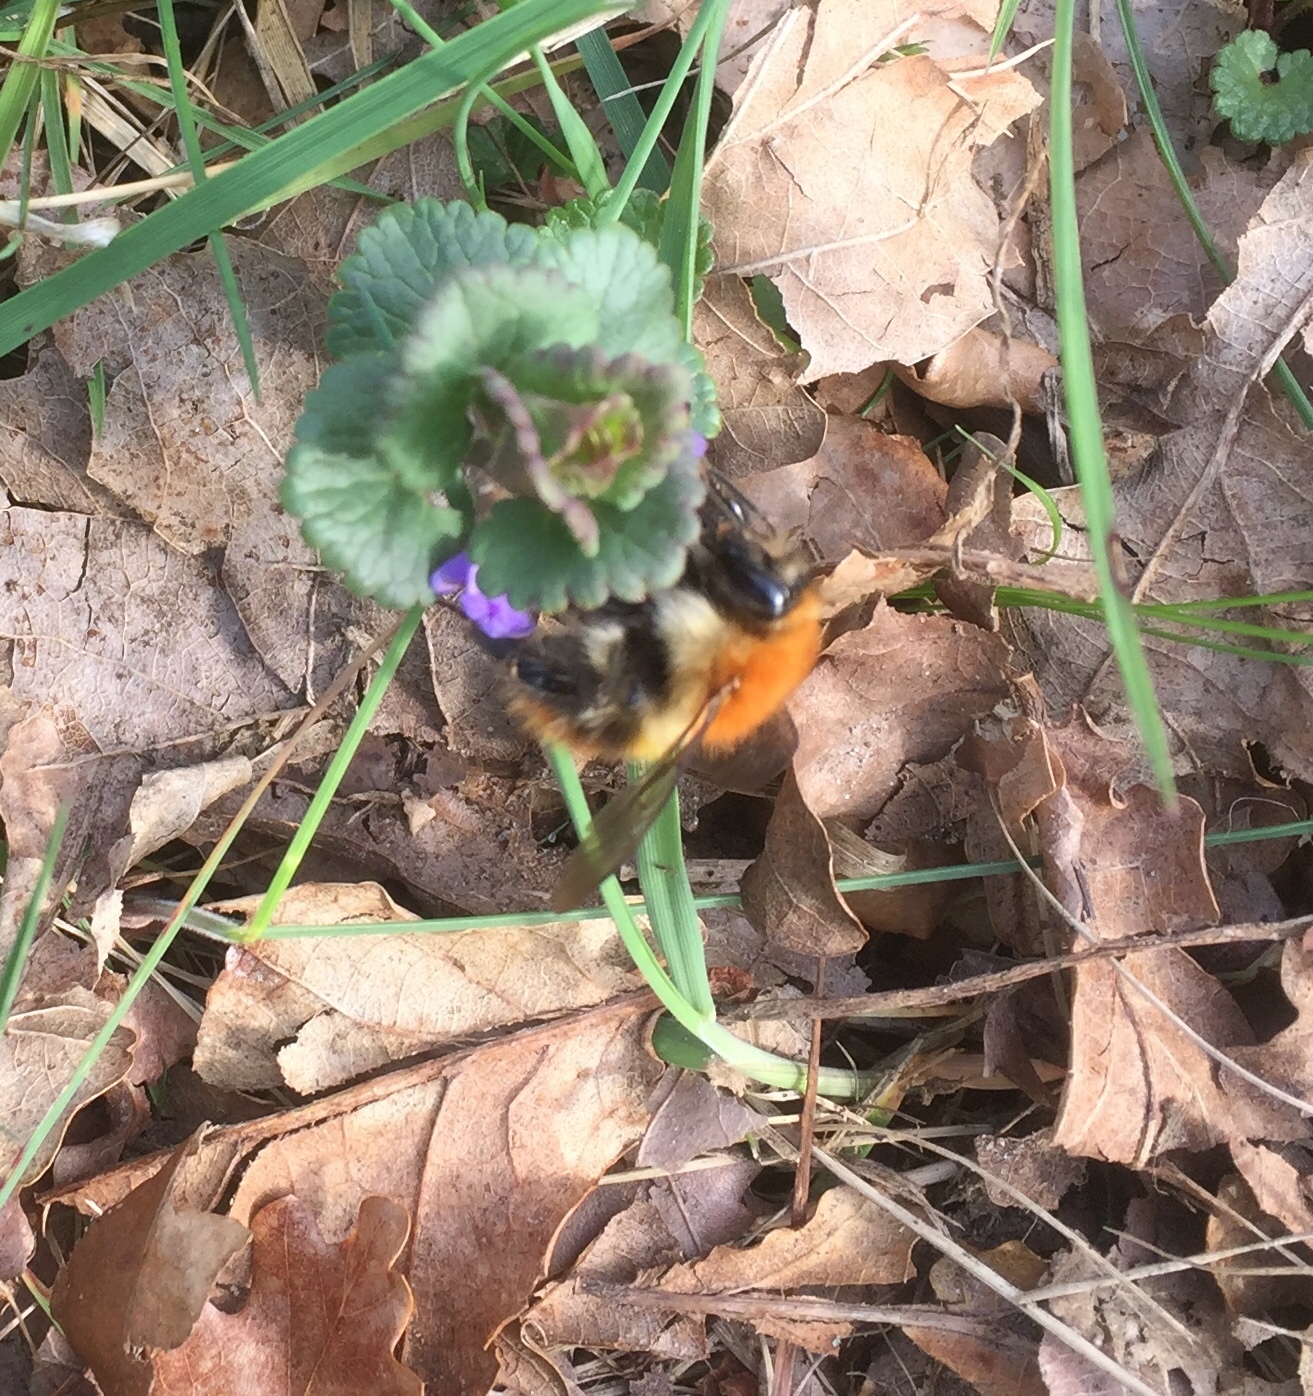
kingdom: Animalia
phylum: Arthropoda
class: Insecta
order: Hymenoptera
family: Apidae
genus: Bombus
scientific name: Bombus pascuorum
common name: Common carder bee
